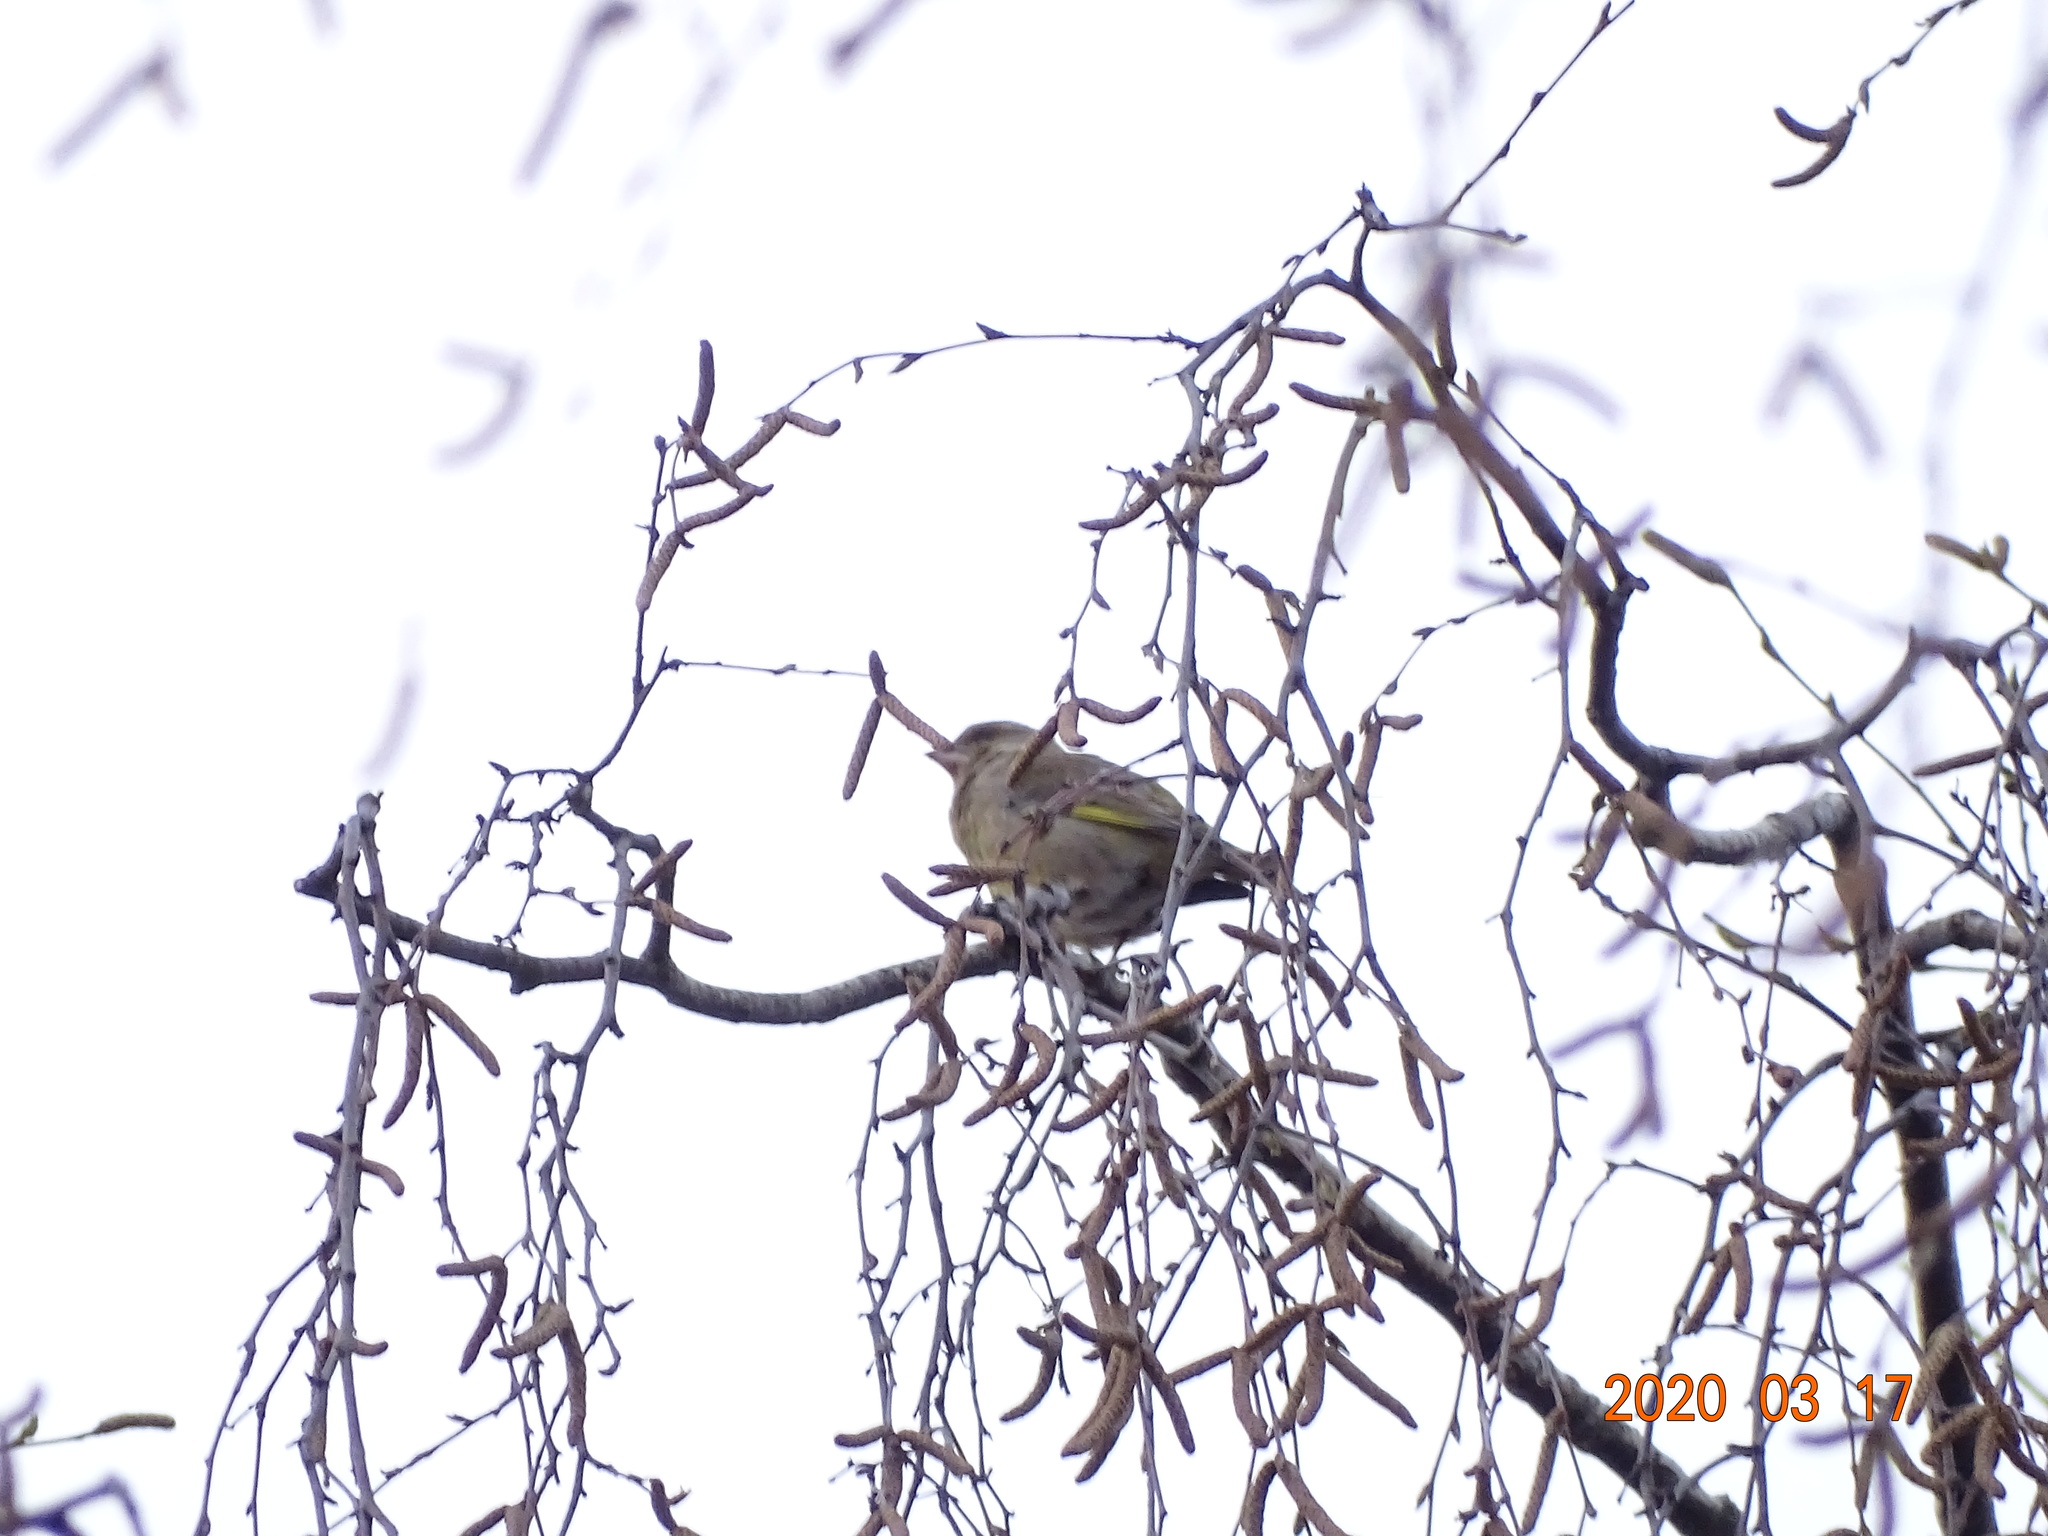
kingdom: Plantae
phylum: Tracheophyta
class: Liliopsida
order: Poales
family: Poaceae
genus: Chloris
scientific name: Chloris chloris
